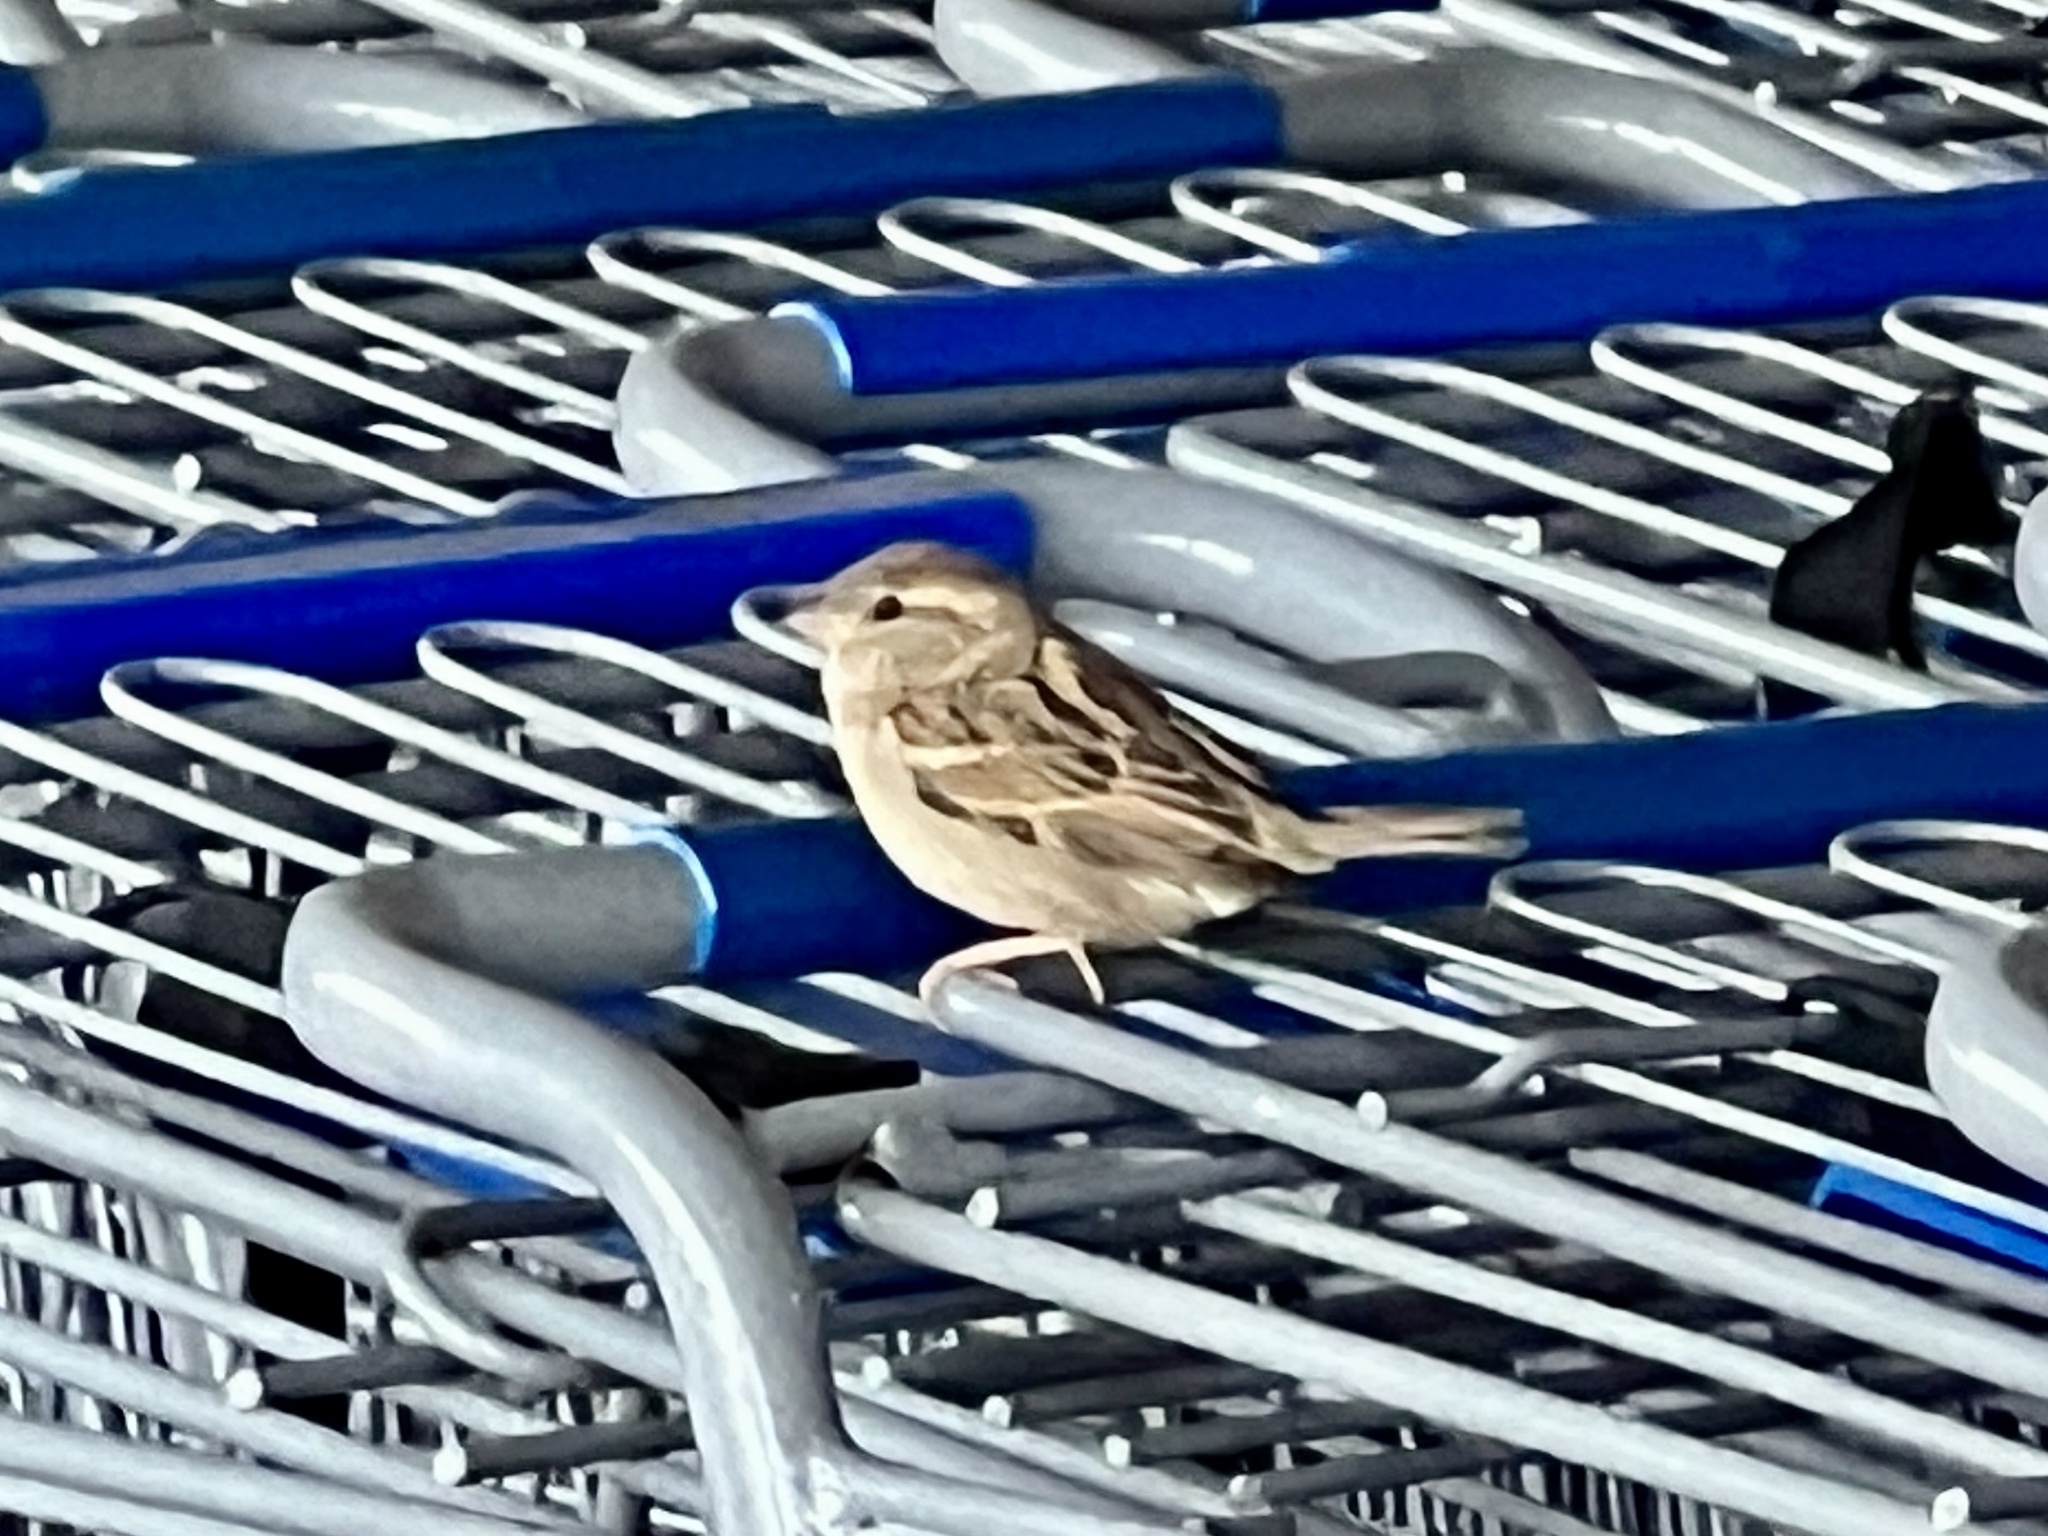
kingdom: Animalia
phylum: Chordata
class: Aves
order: Passeriformes
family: Passeridae
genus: Passer
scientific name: Passer domesticus
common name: House sparrow
